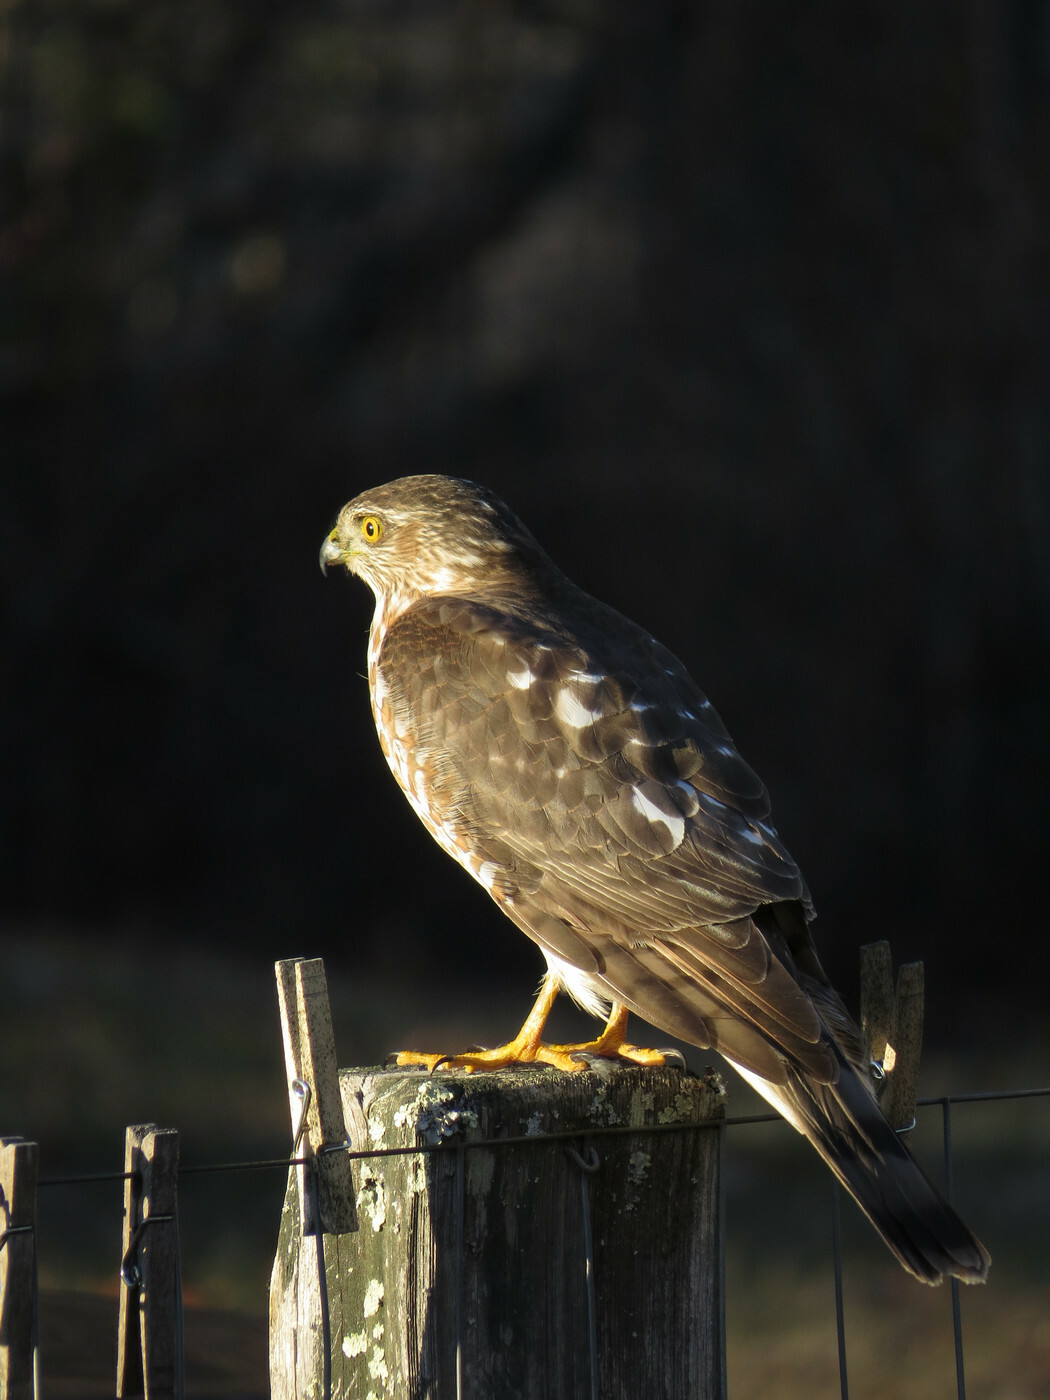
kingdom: Animalia
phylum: Chordata
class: Aves
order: Accipitriformes
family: Accipitridae
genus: Accipiter
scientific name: Accipiter striatus
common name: Sharp-shinned hawk
